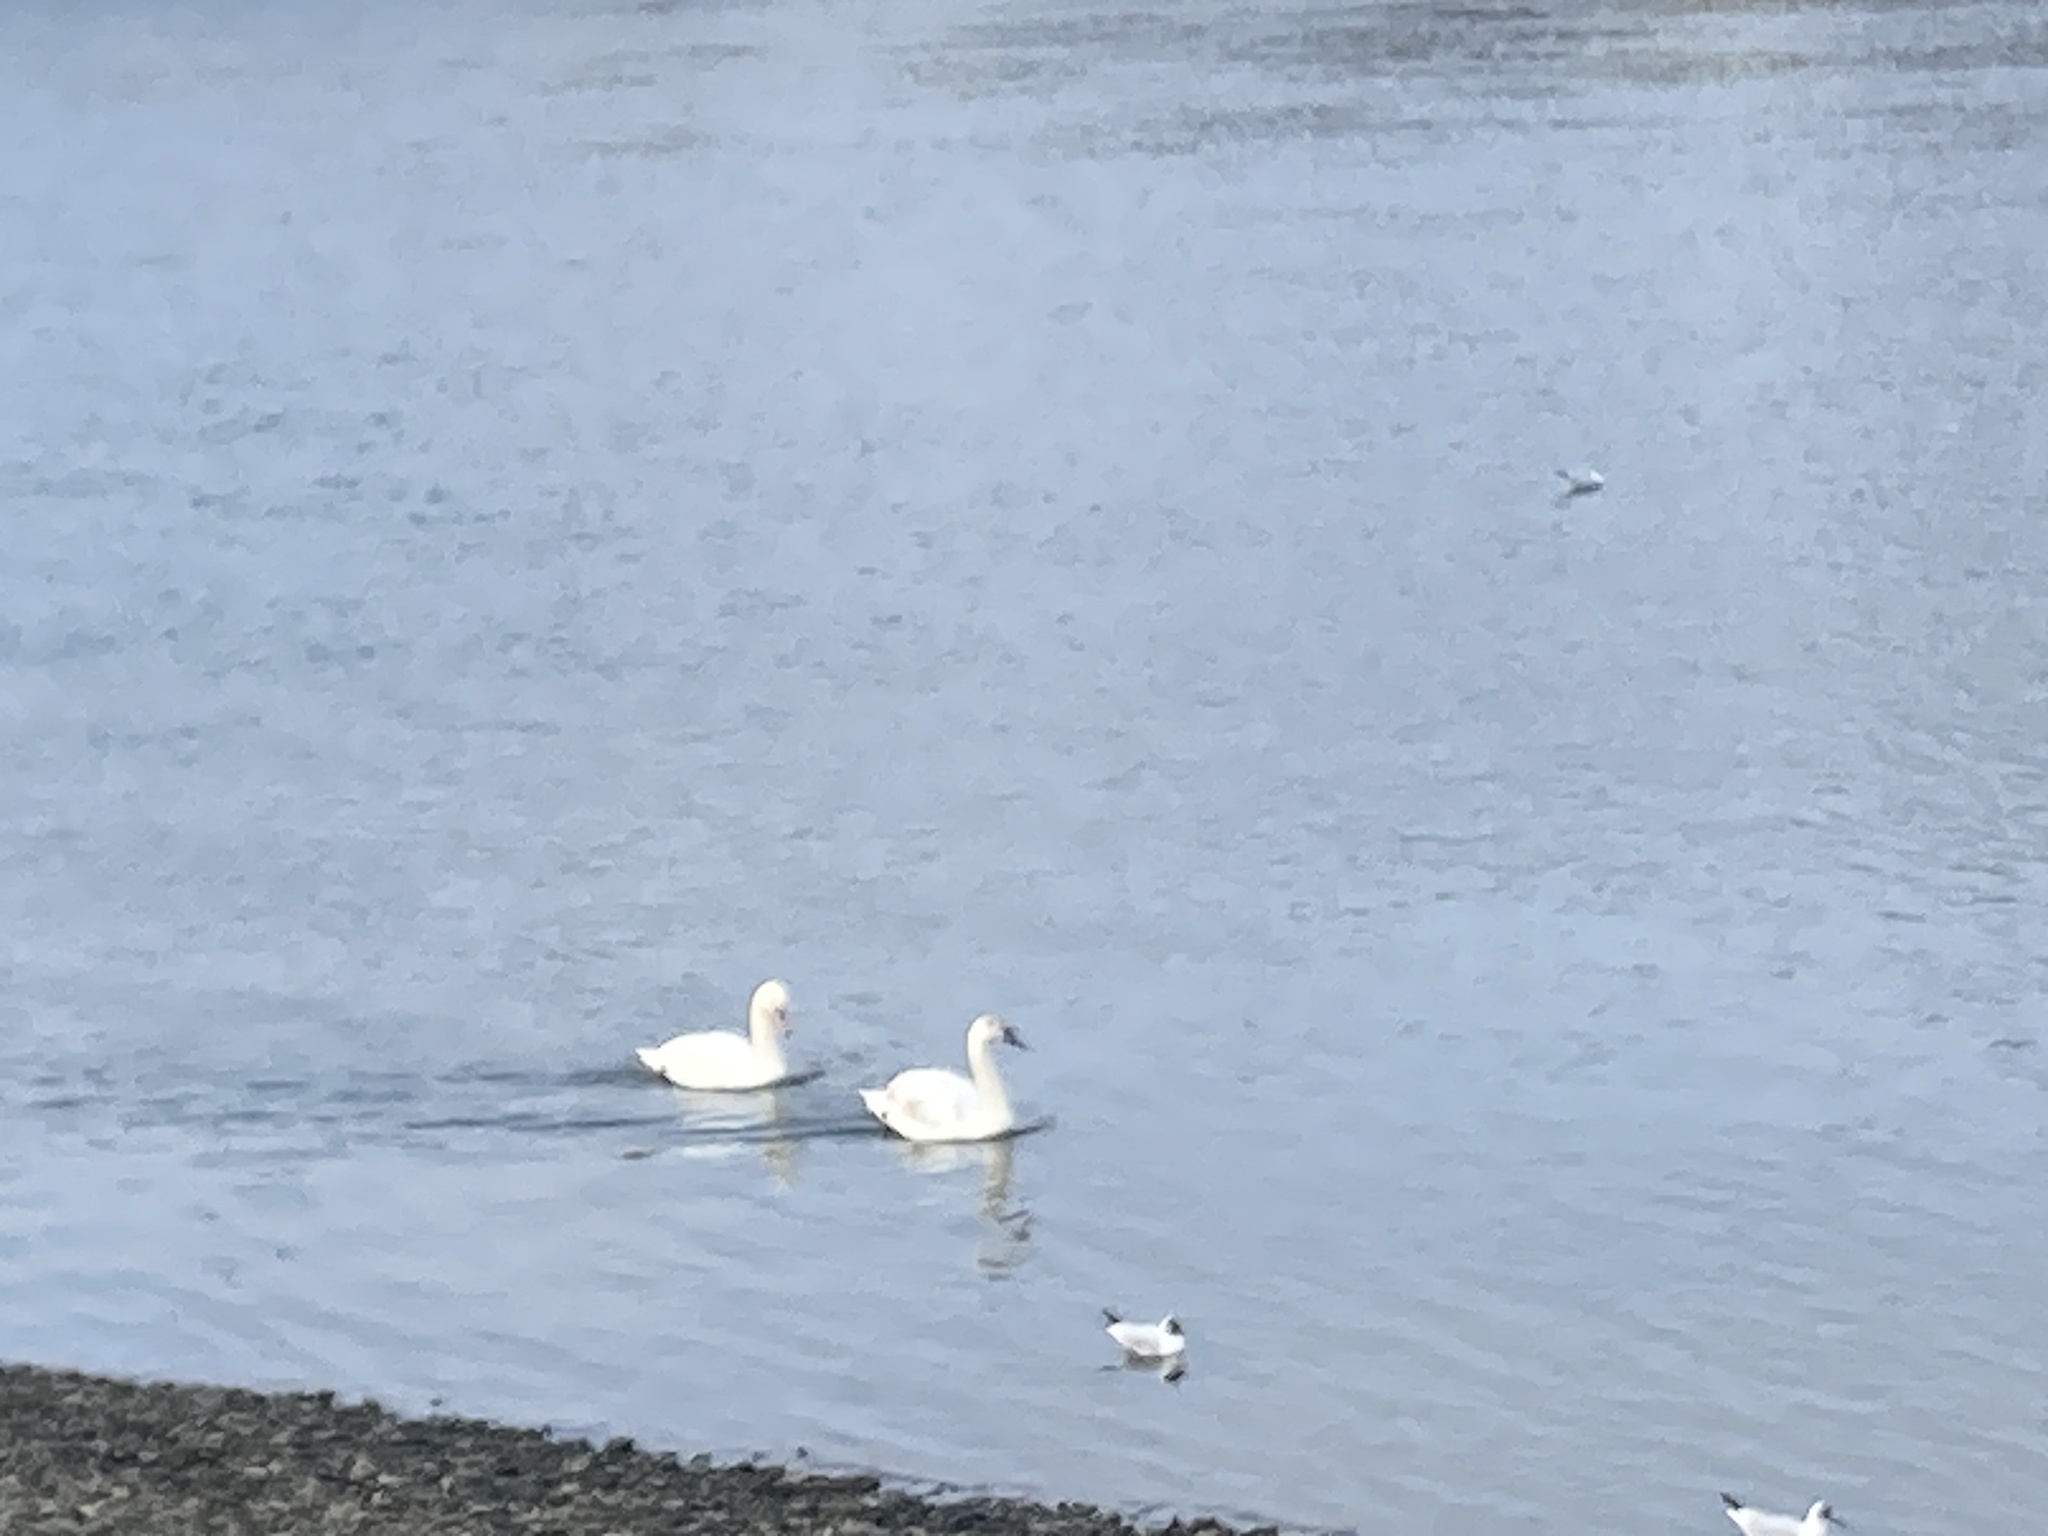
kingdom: Animalia
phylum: Chordata
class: Aves
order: Anseriformes
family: Anatidae
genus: Cygnus
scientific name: Cygnus olor
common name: Mute swan
